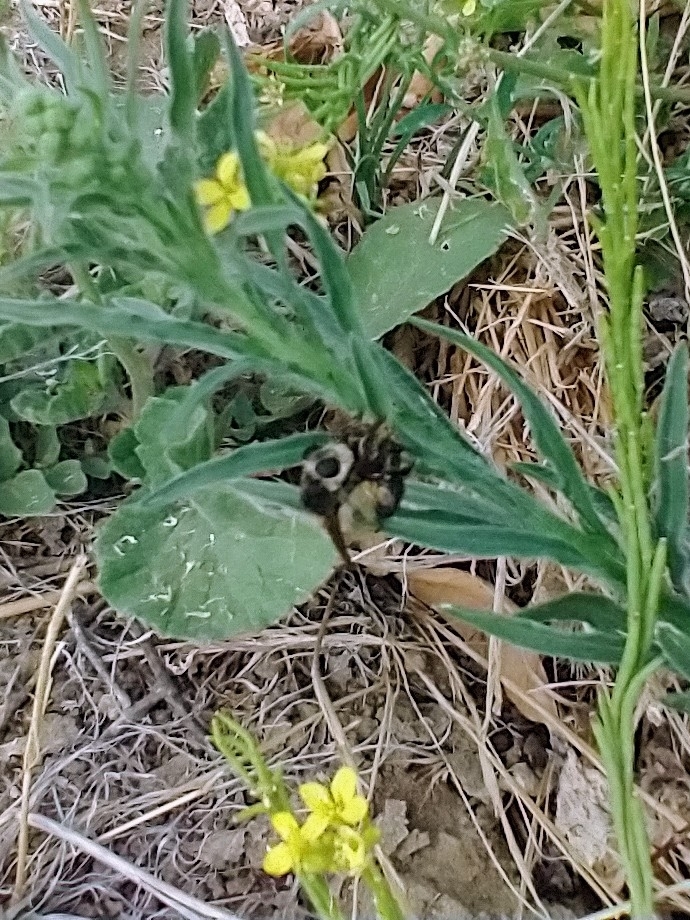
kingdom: Animalia
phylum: Arthropoda
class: Insecta
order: Diptera
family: Asilidae
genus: Mallophora
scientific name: Mallophora fautrix
